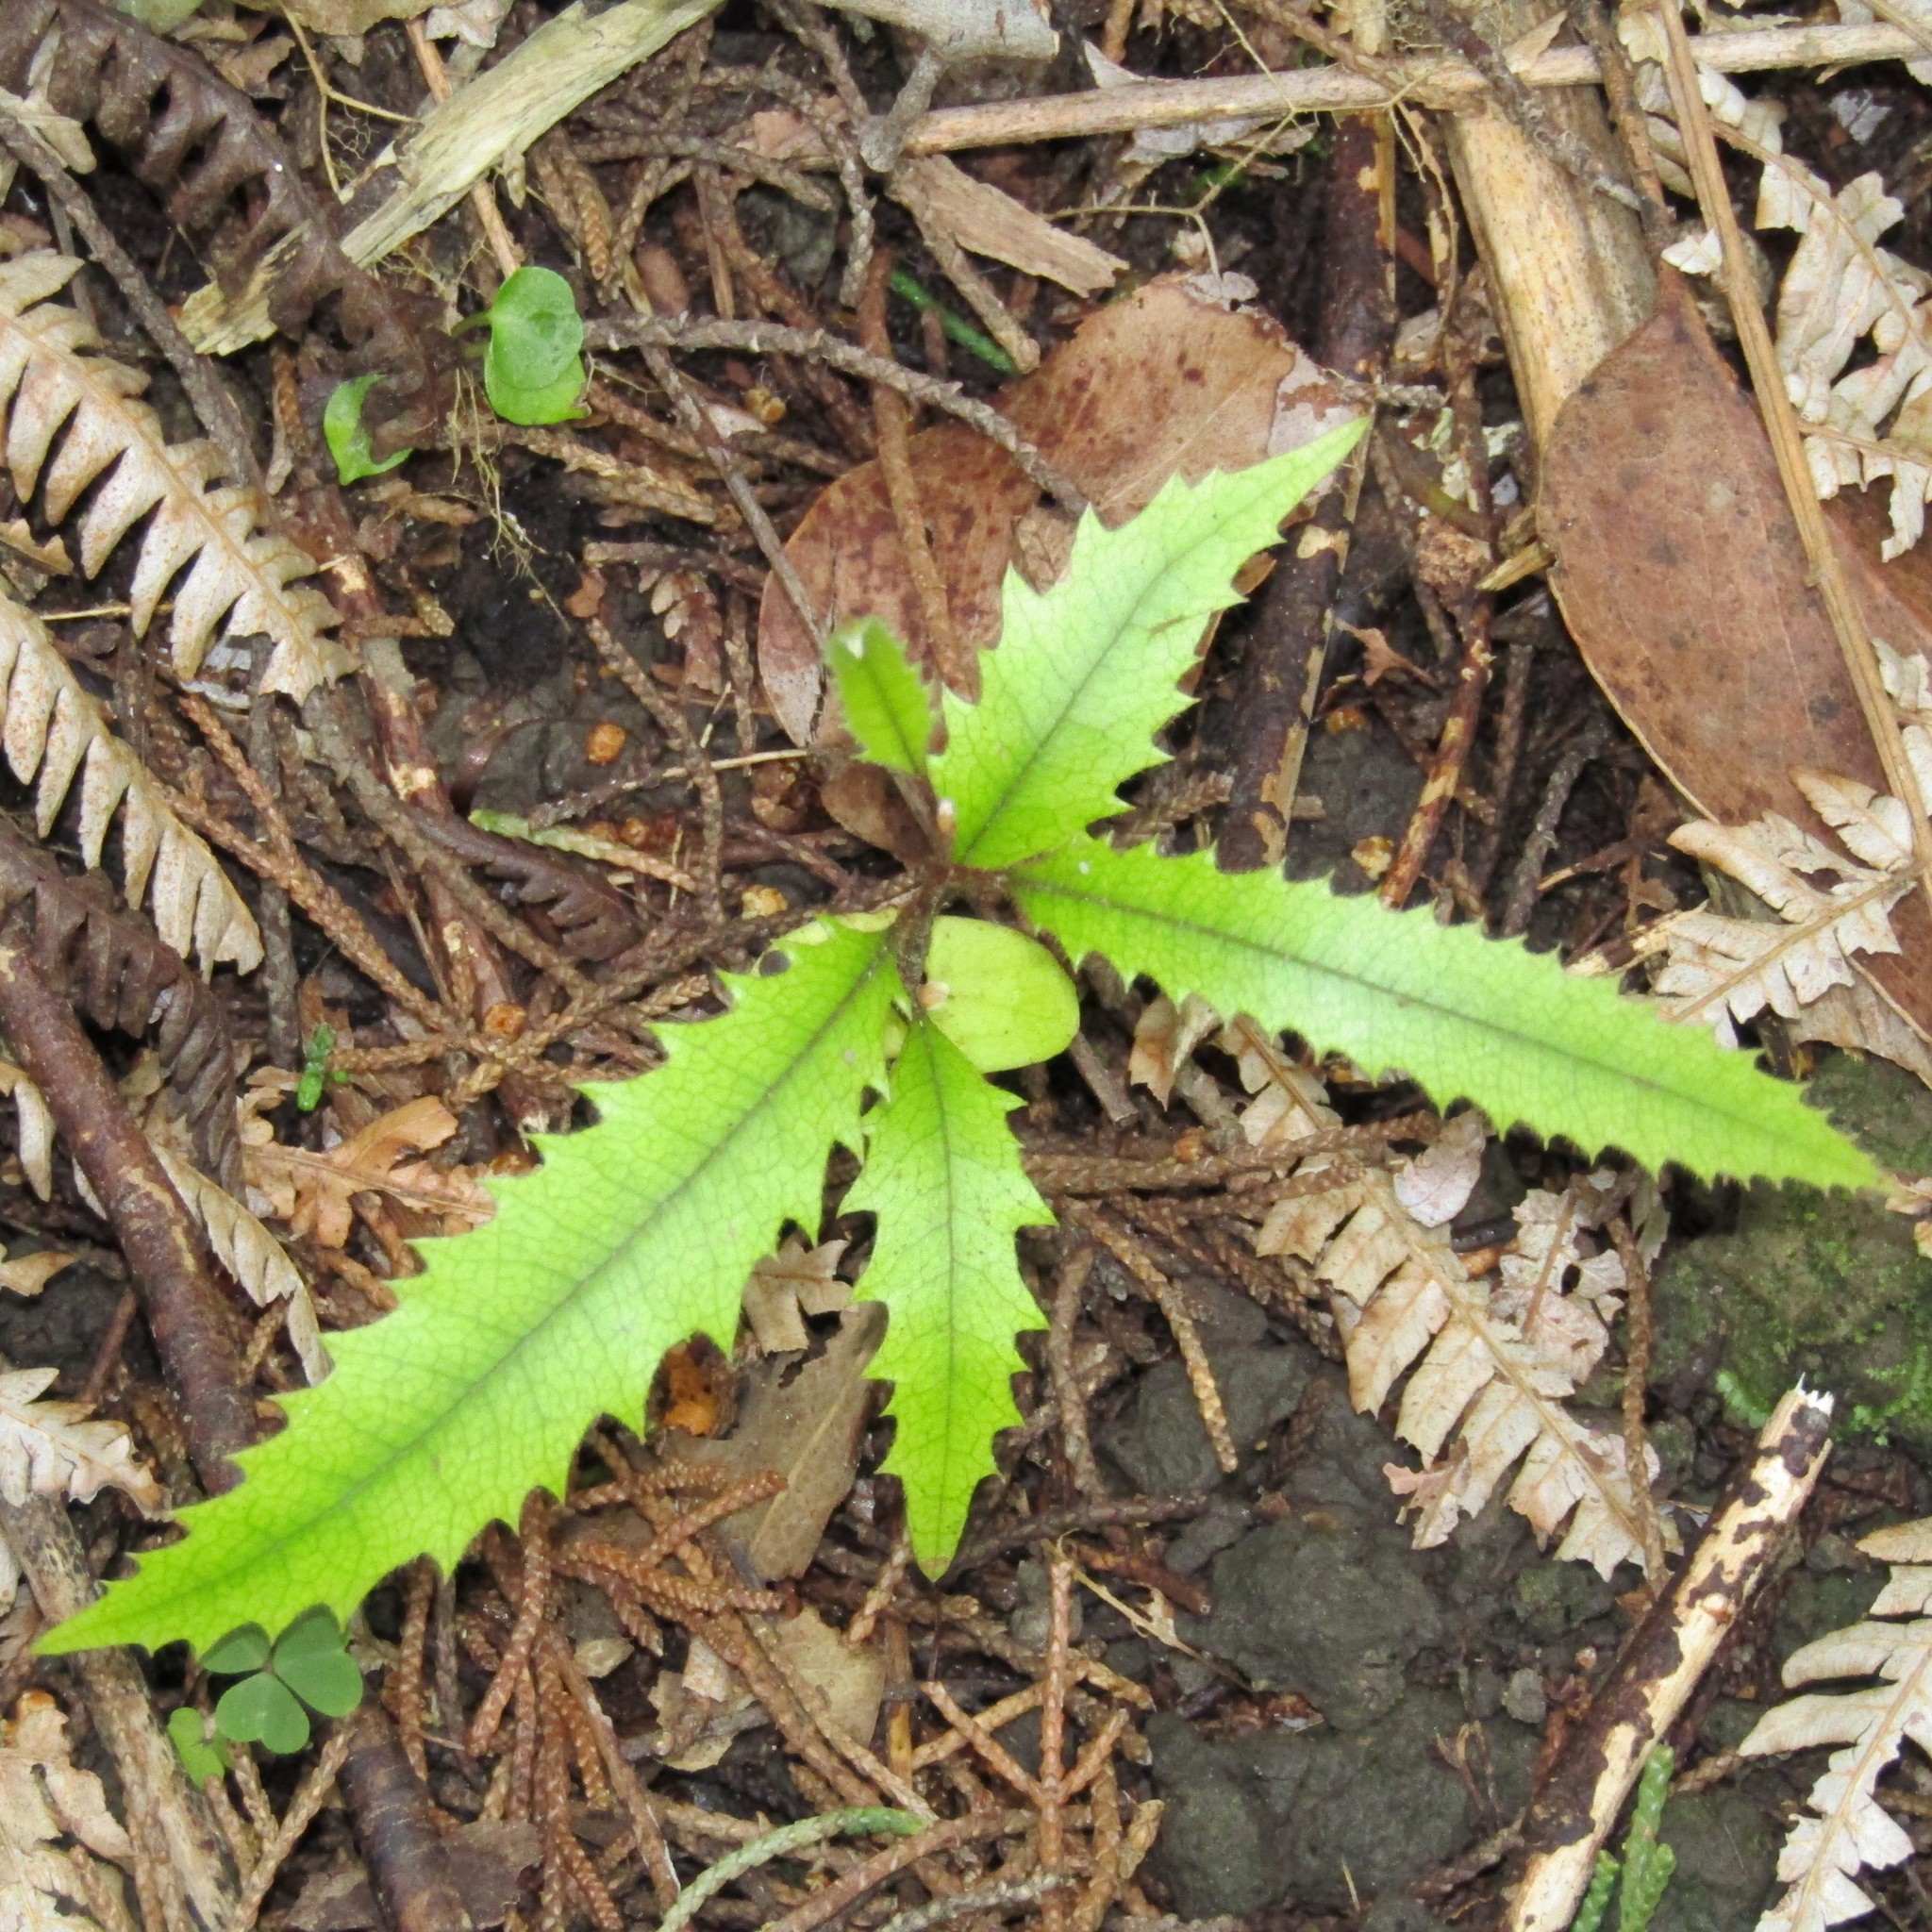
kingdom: Plantae
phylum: Tracheophyta
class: Magnoliopsida
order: Proteales
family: Proteaceae
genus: Knightia
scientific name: Knightia excelsa
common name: New zealand-honeysuckle
